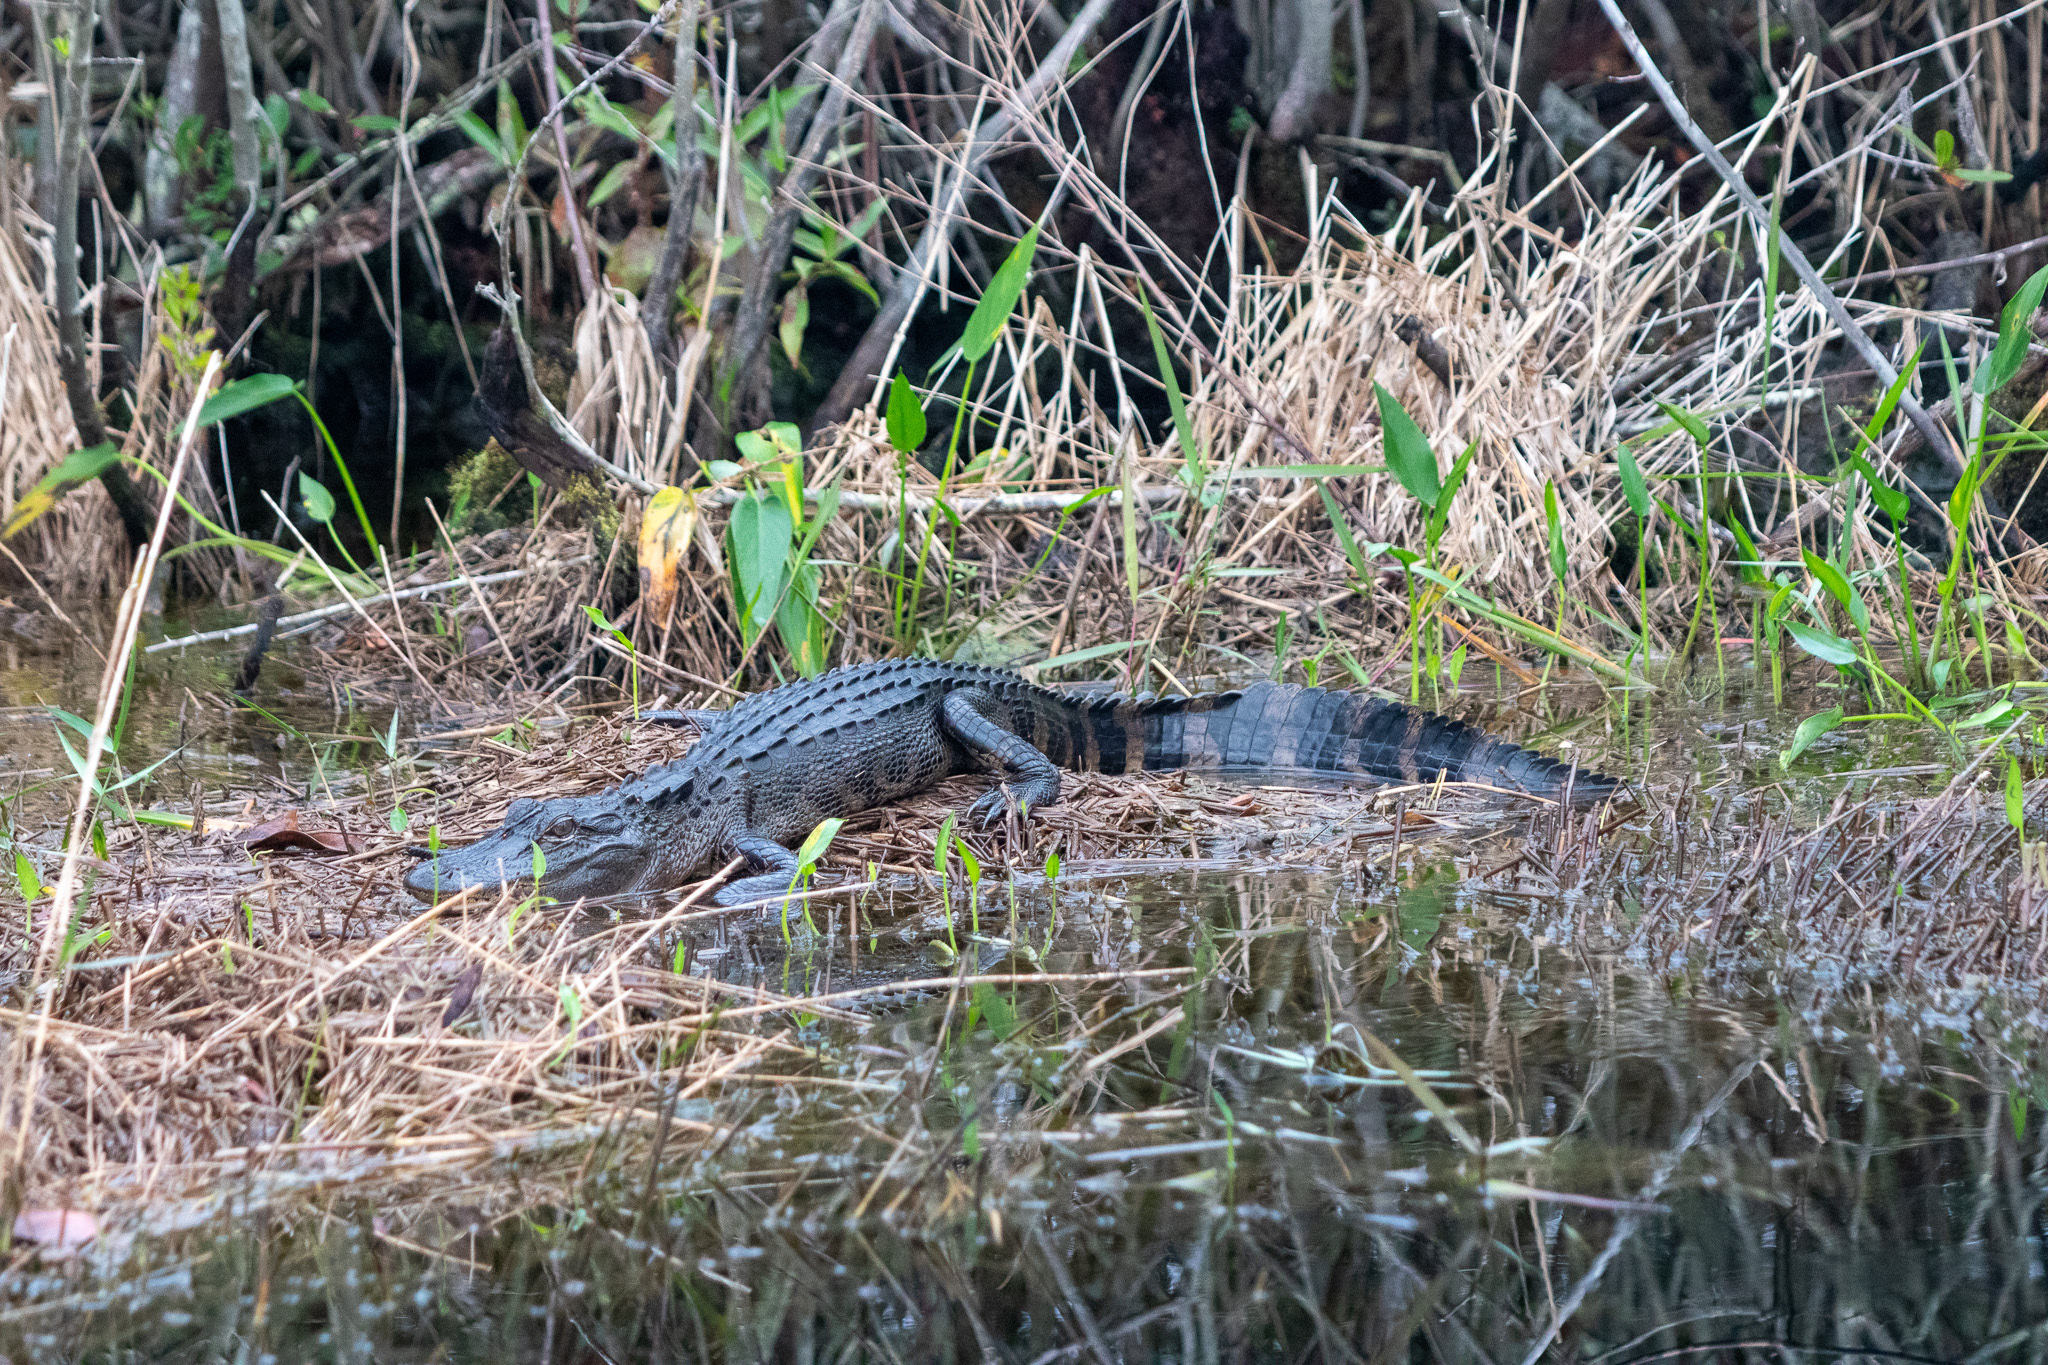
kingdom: Animalia
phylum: Chordata
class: Crocodylia
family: Alligatoridae
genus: Alligator
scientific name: Alligator mississippiensis
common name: American alligator
